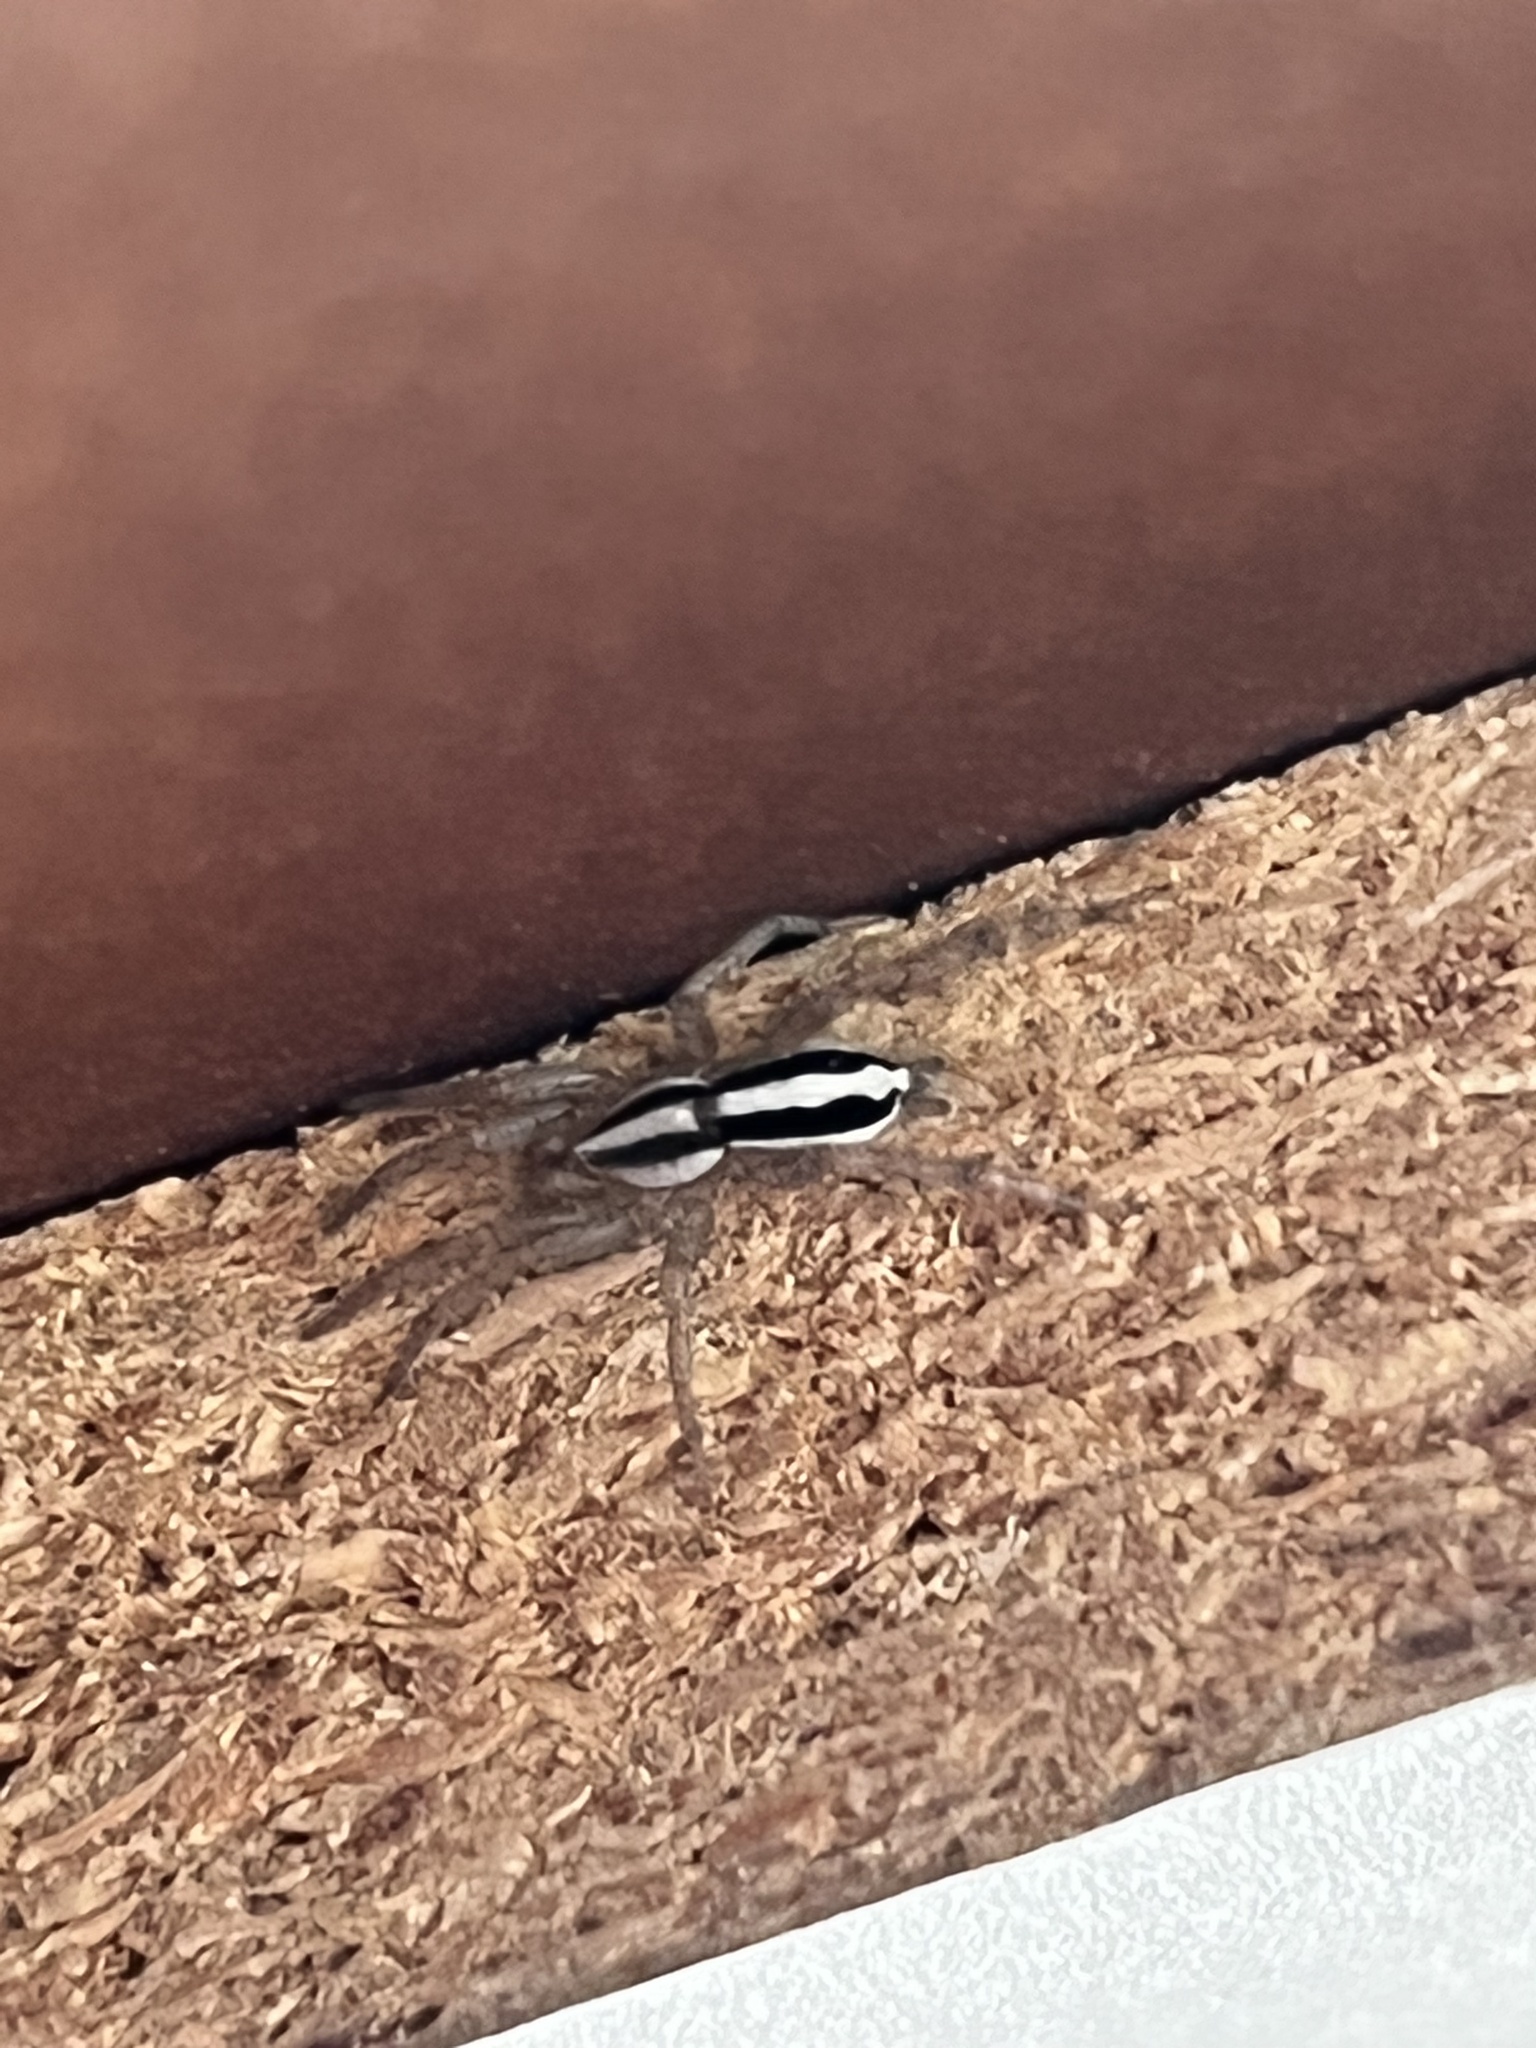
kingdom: Animalia
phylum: Arthropoda
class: Arachnida
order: Araneae
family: Gnaphosidae
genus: Cesonia
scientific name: Cesonia bilineata
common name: Two-lined stealthy ground spider
